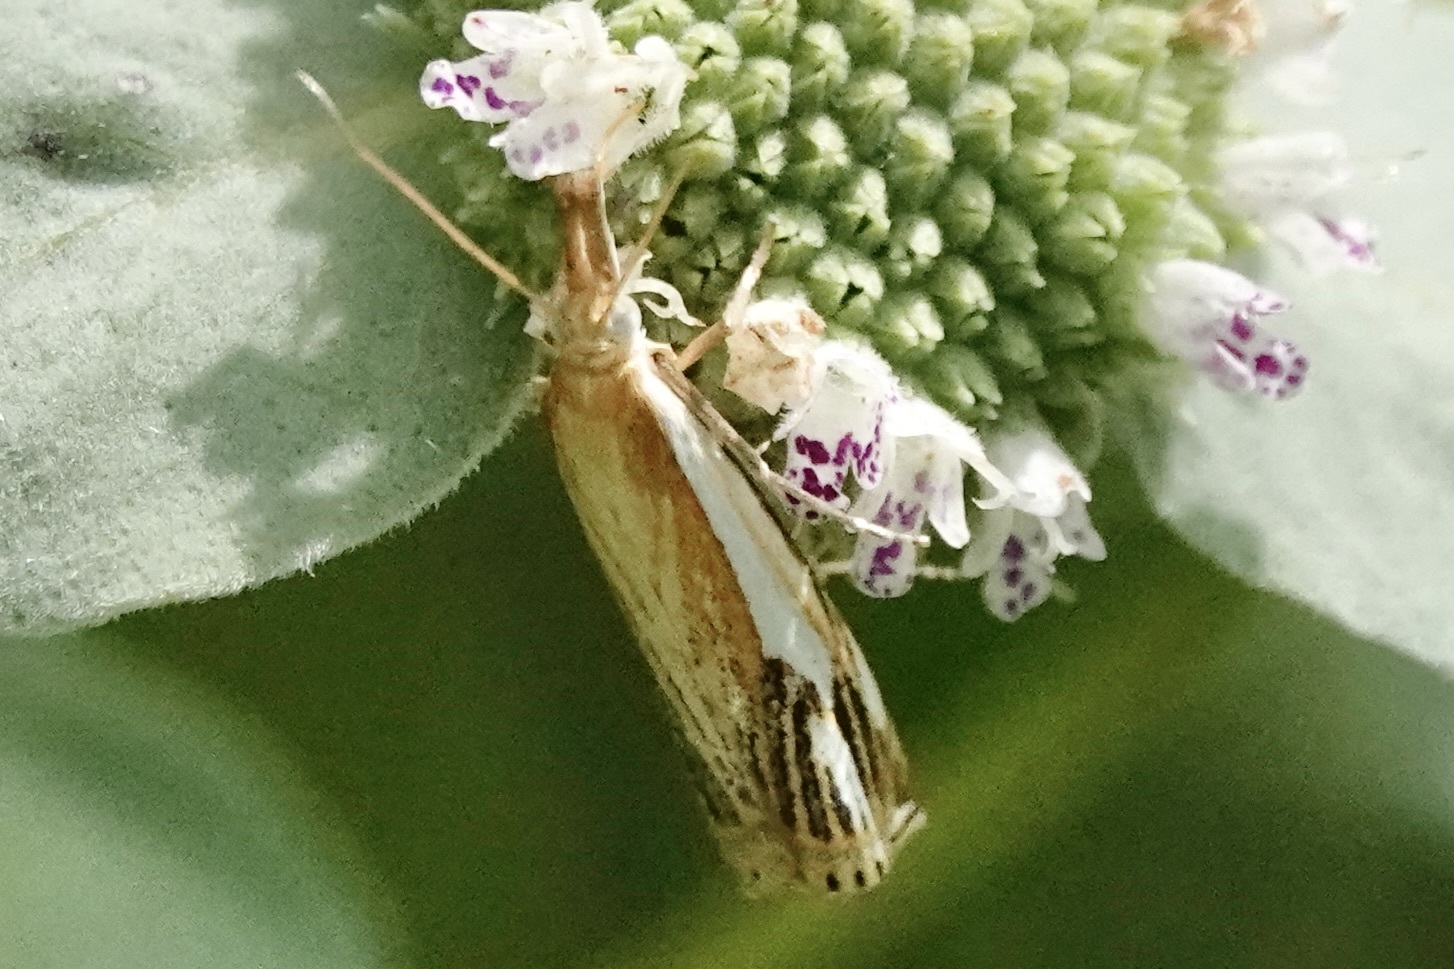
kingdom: Animalia
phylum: Arthropoda
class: Insecta
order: Lepidoptera
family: Crambidae
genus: Crambus
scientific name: Crambus agitatellus
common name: Double-banded grass-veneer
